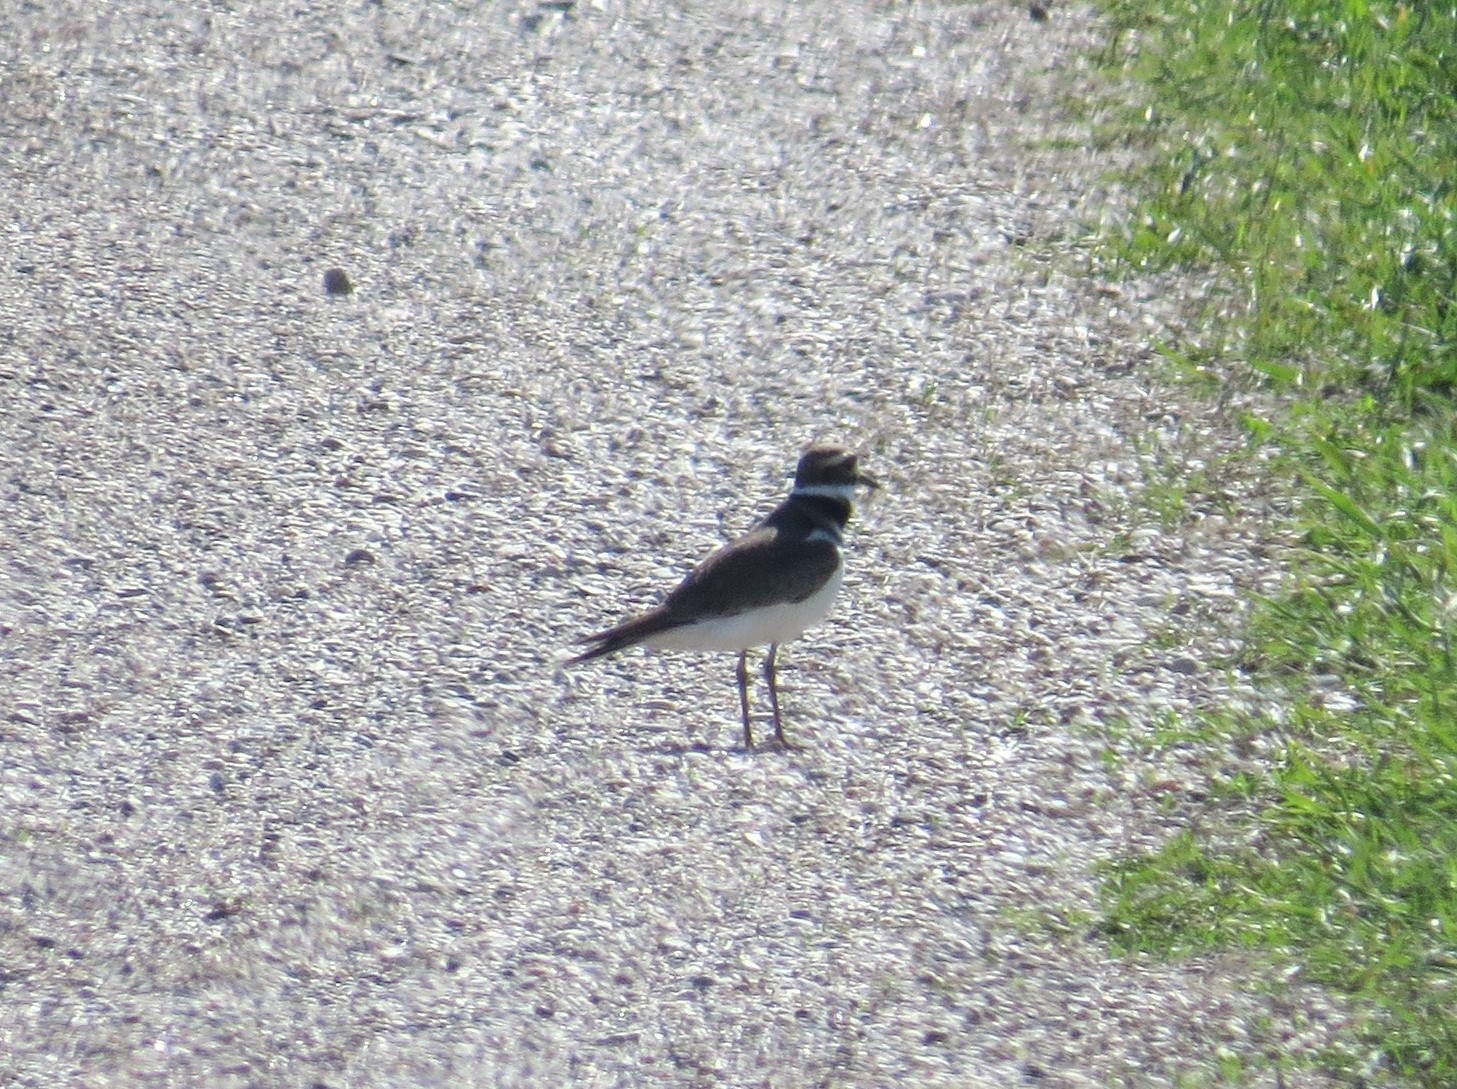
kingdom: Animalia
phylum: Chordata
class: Aves
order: Charadriiformes
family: Charadriidae
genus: Charadrius
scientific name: Charadrius vociferus
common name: Killdeer
